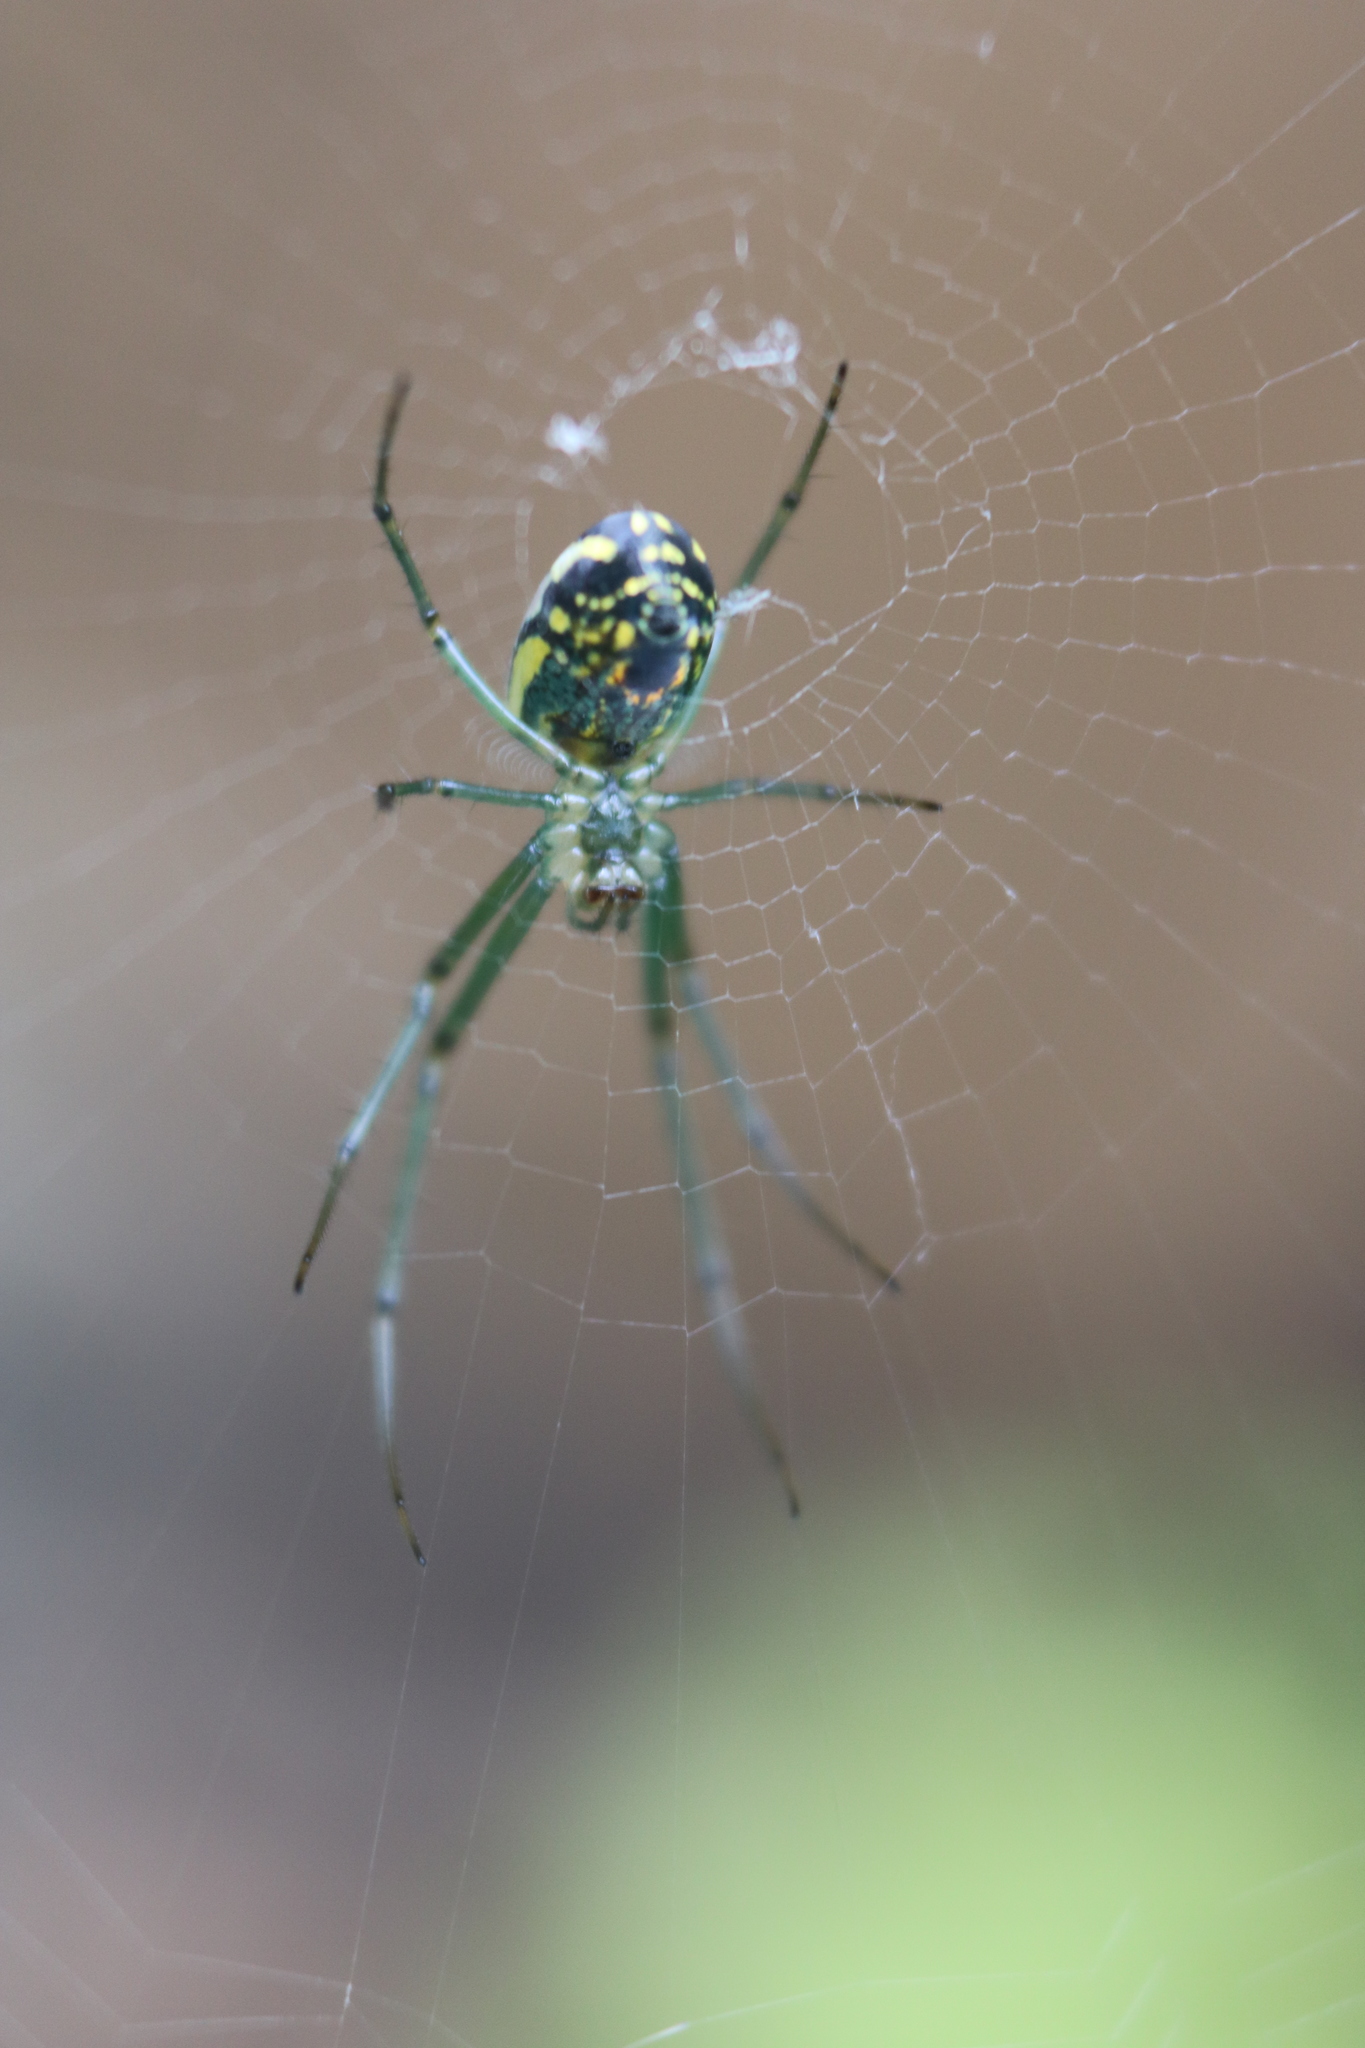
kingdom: Animalia
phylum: Arthropoda
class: Arachnida
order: Araneae
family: Tetragnathidae
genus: Leucauge
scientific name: Leucauge venusta
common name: Longjawed orb weavers
